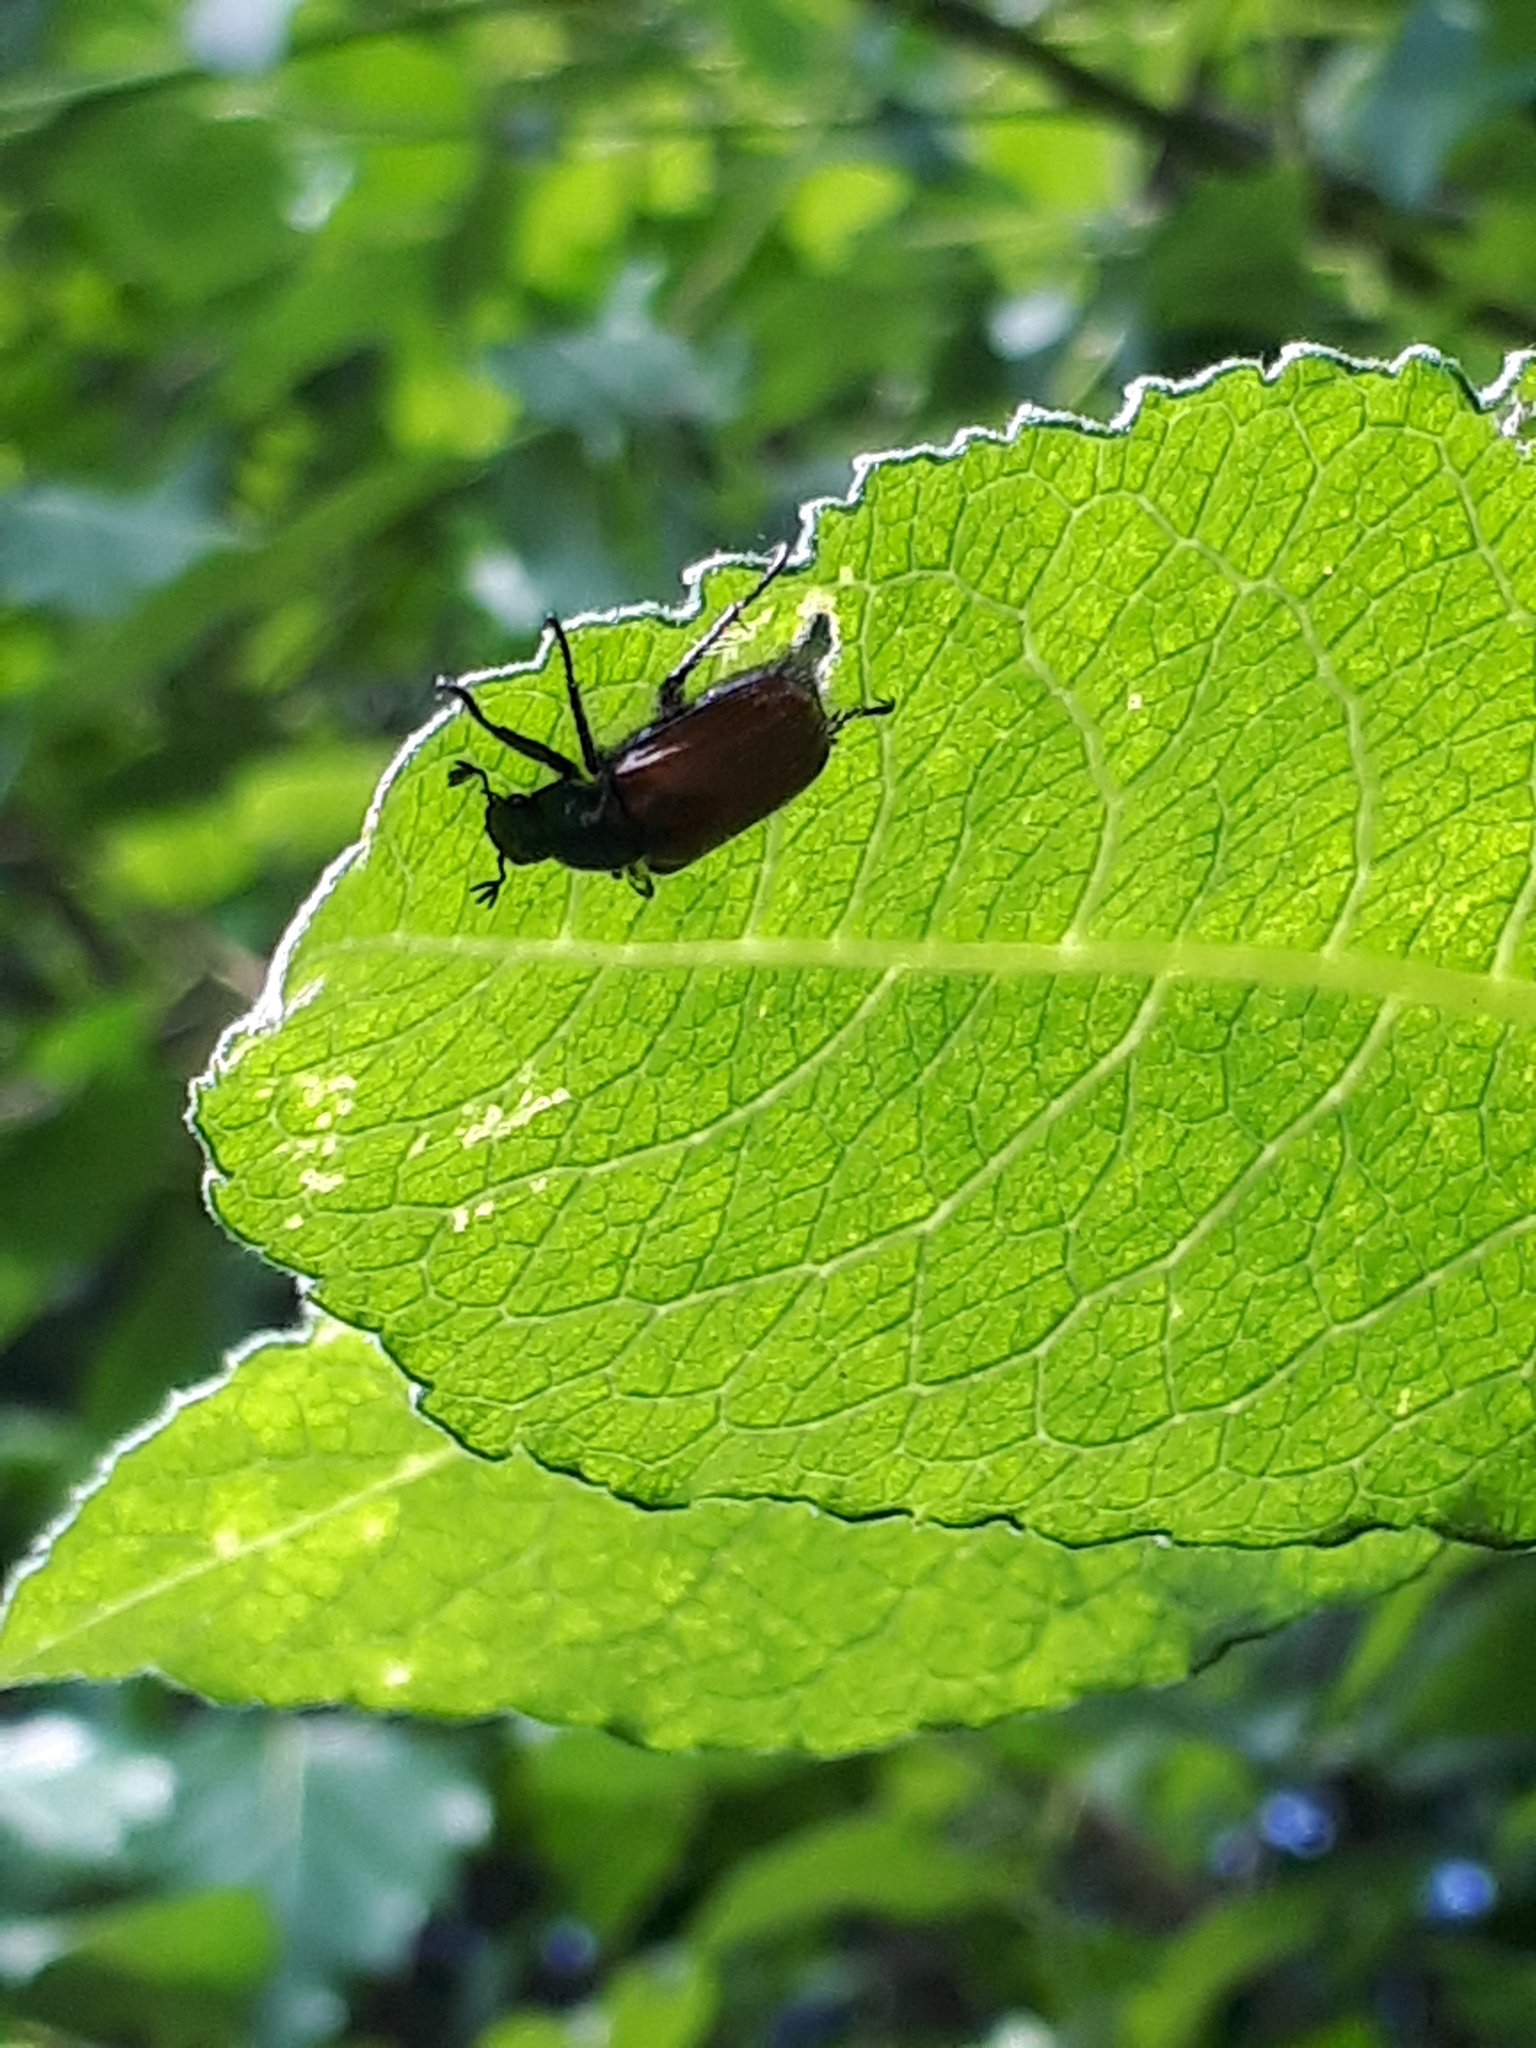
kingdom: Animalia
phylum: Arthropoda
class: Insecta
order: Coleoptera
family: Scarabaeidae
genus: Phyllopertha
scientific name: Phyllopertha horticola
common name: Garden chafer
